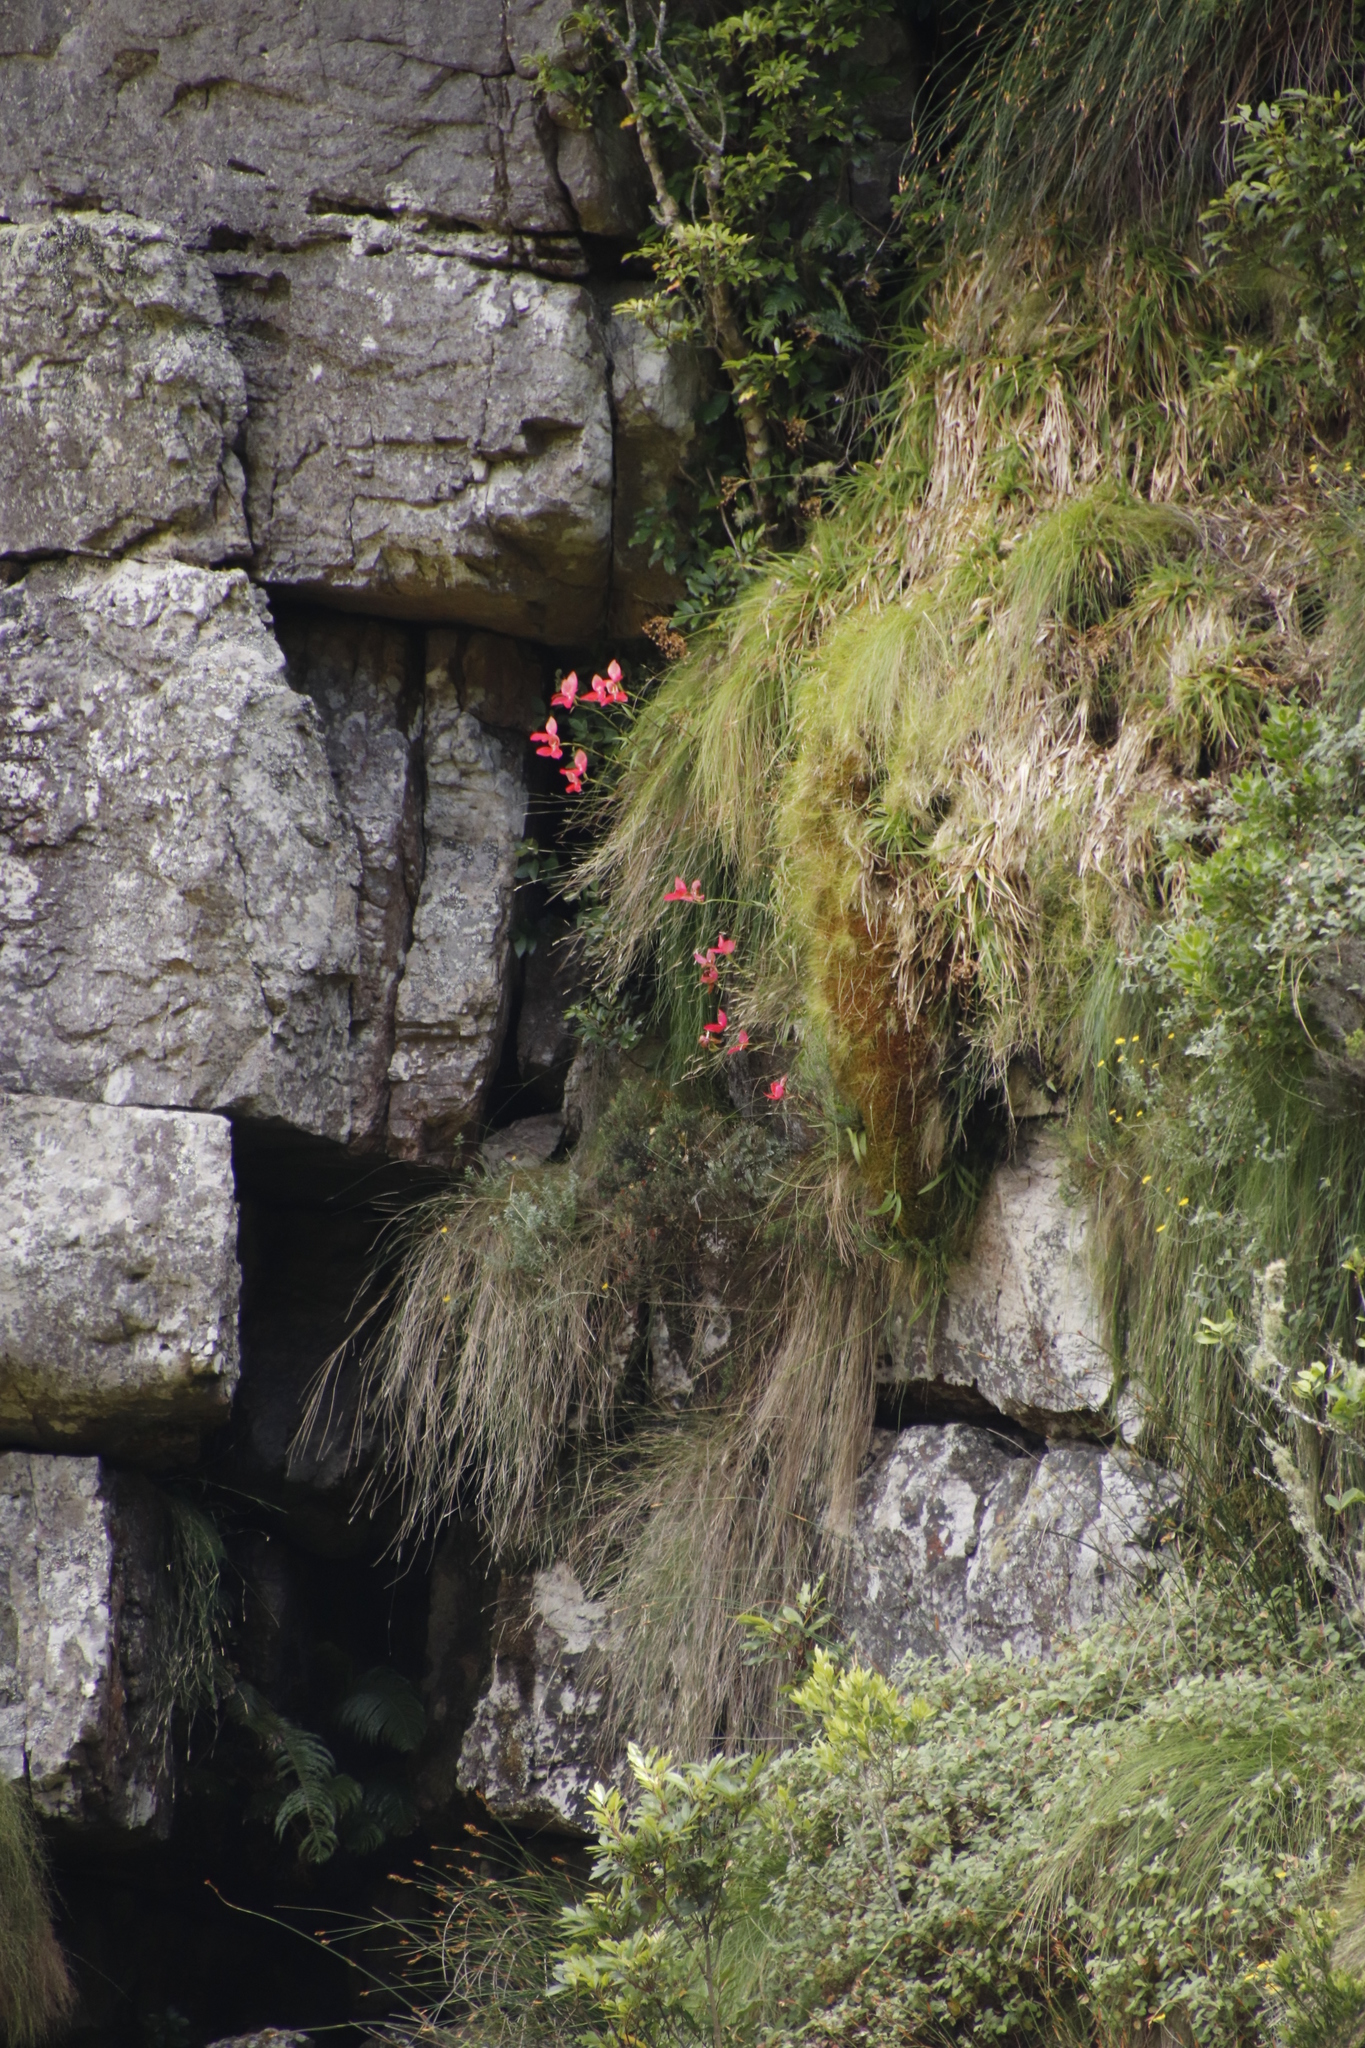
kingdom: Plantae
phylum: Tracheophyta
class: Liliopsida
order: Asparagales
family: Orchidaceae
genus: Disa
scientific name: Disa uniflora
